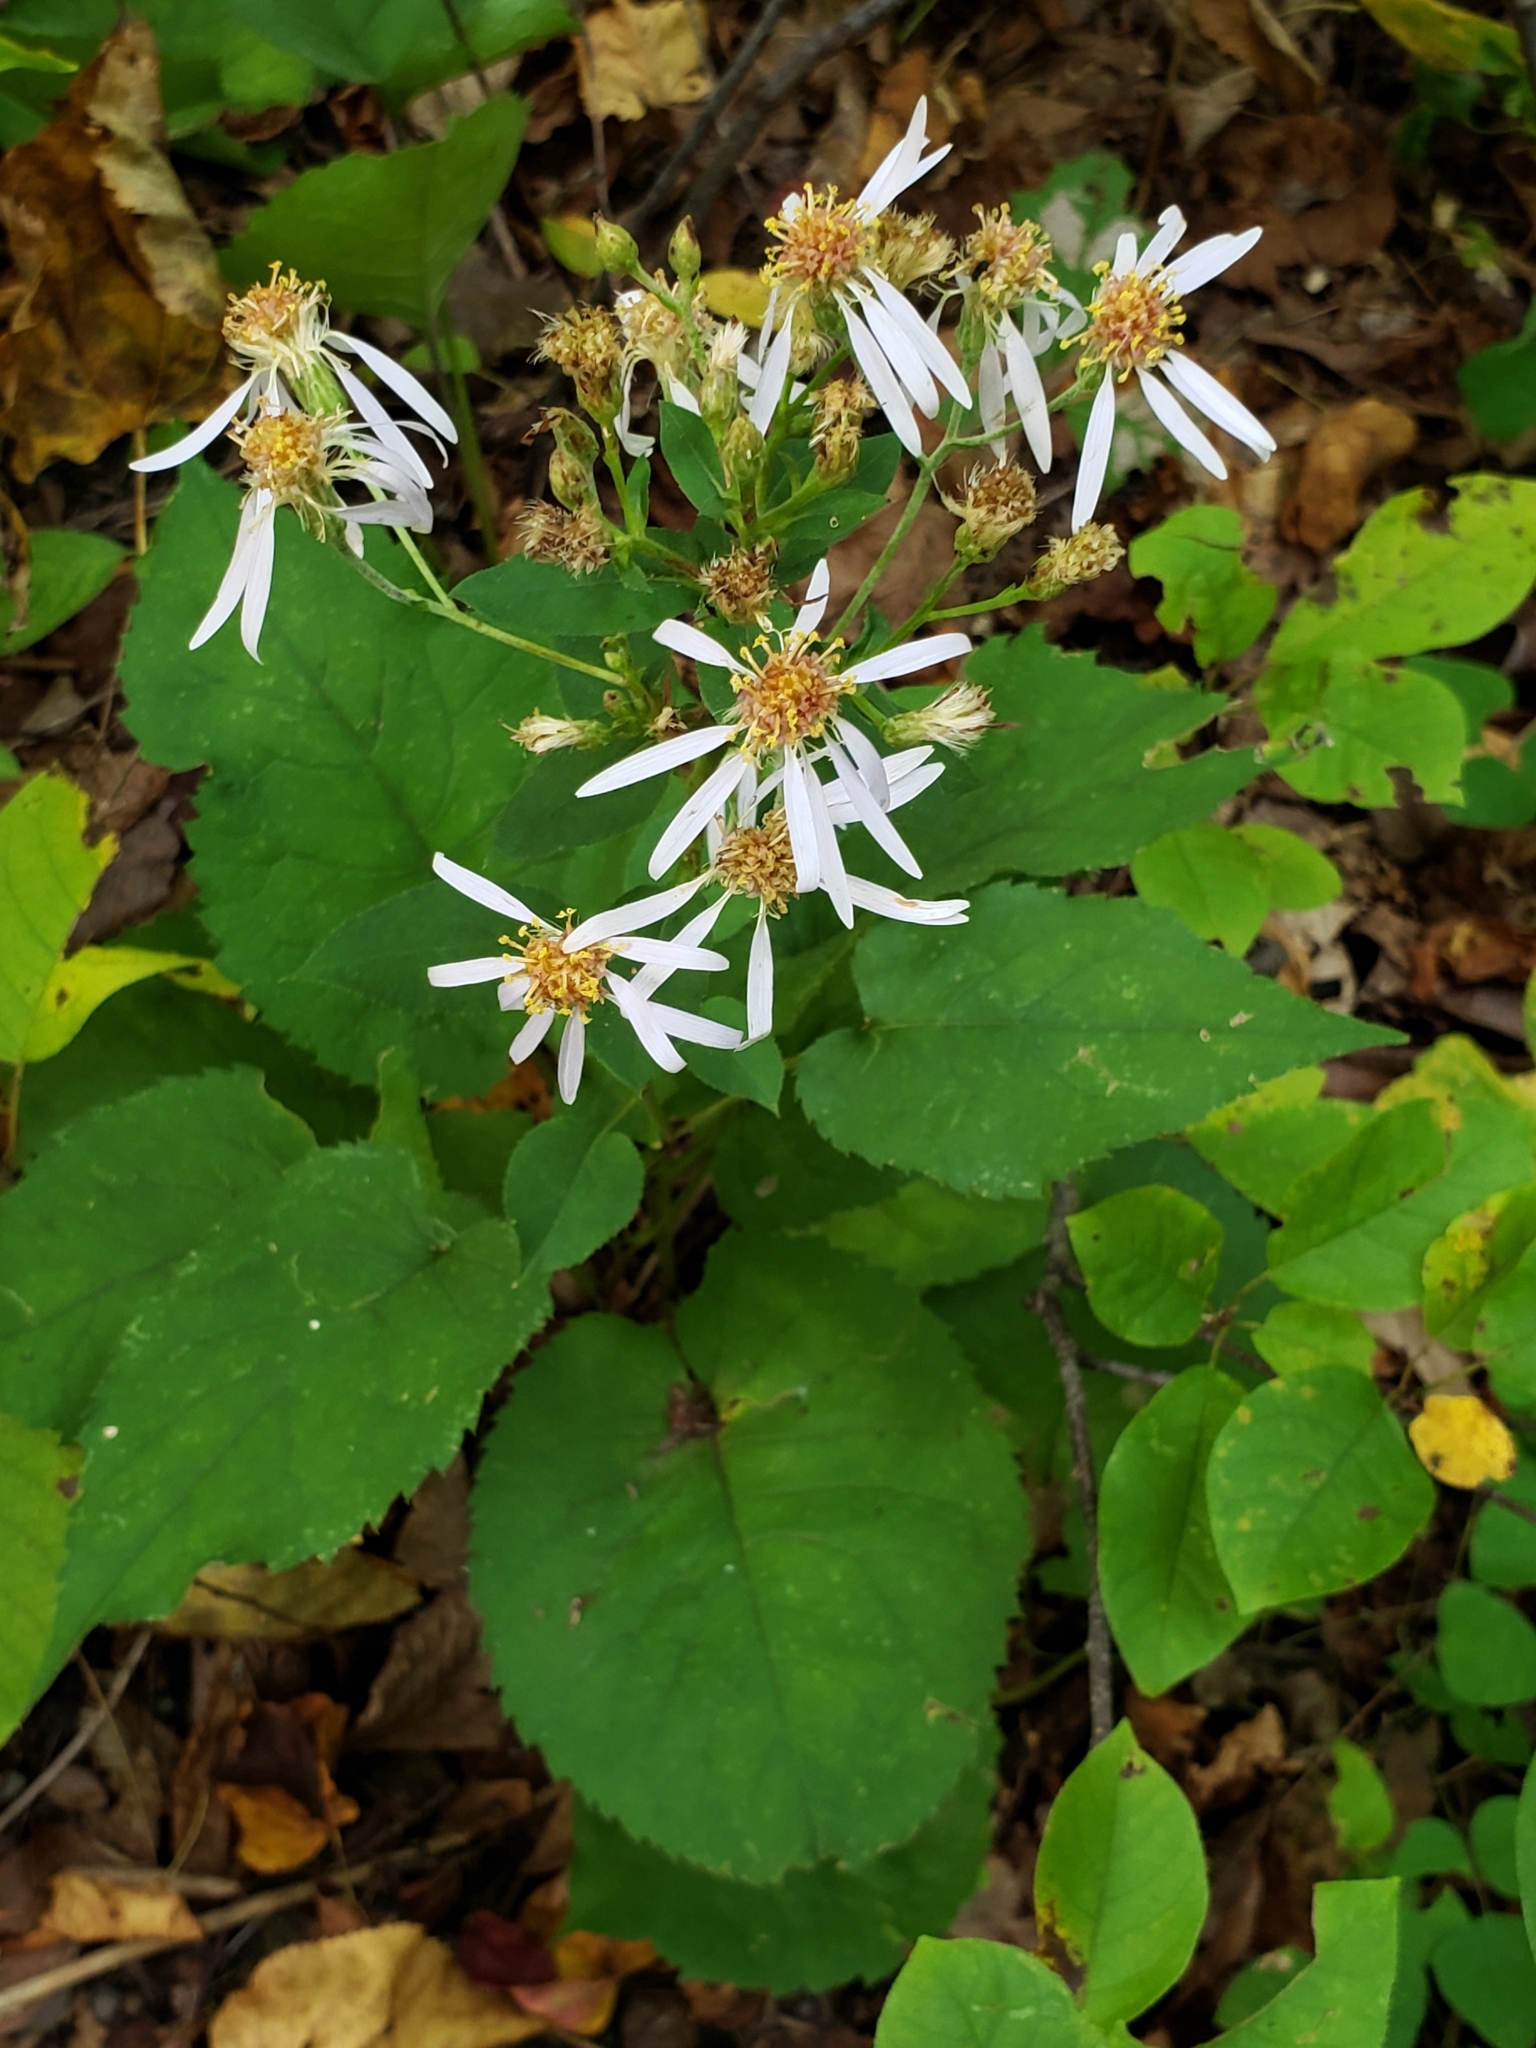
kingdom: Plantae
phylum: Tracheophyta
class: Magnoliopsida
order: Asterales
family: Asteraceae
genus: Eurybia
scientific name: Eurybia macrophylla
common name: Big-leaved aster
